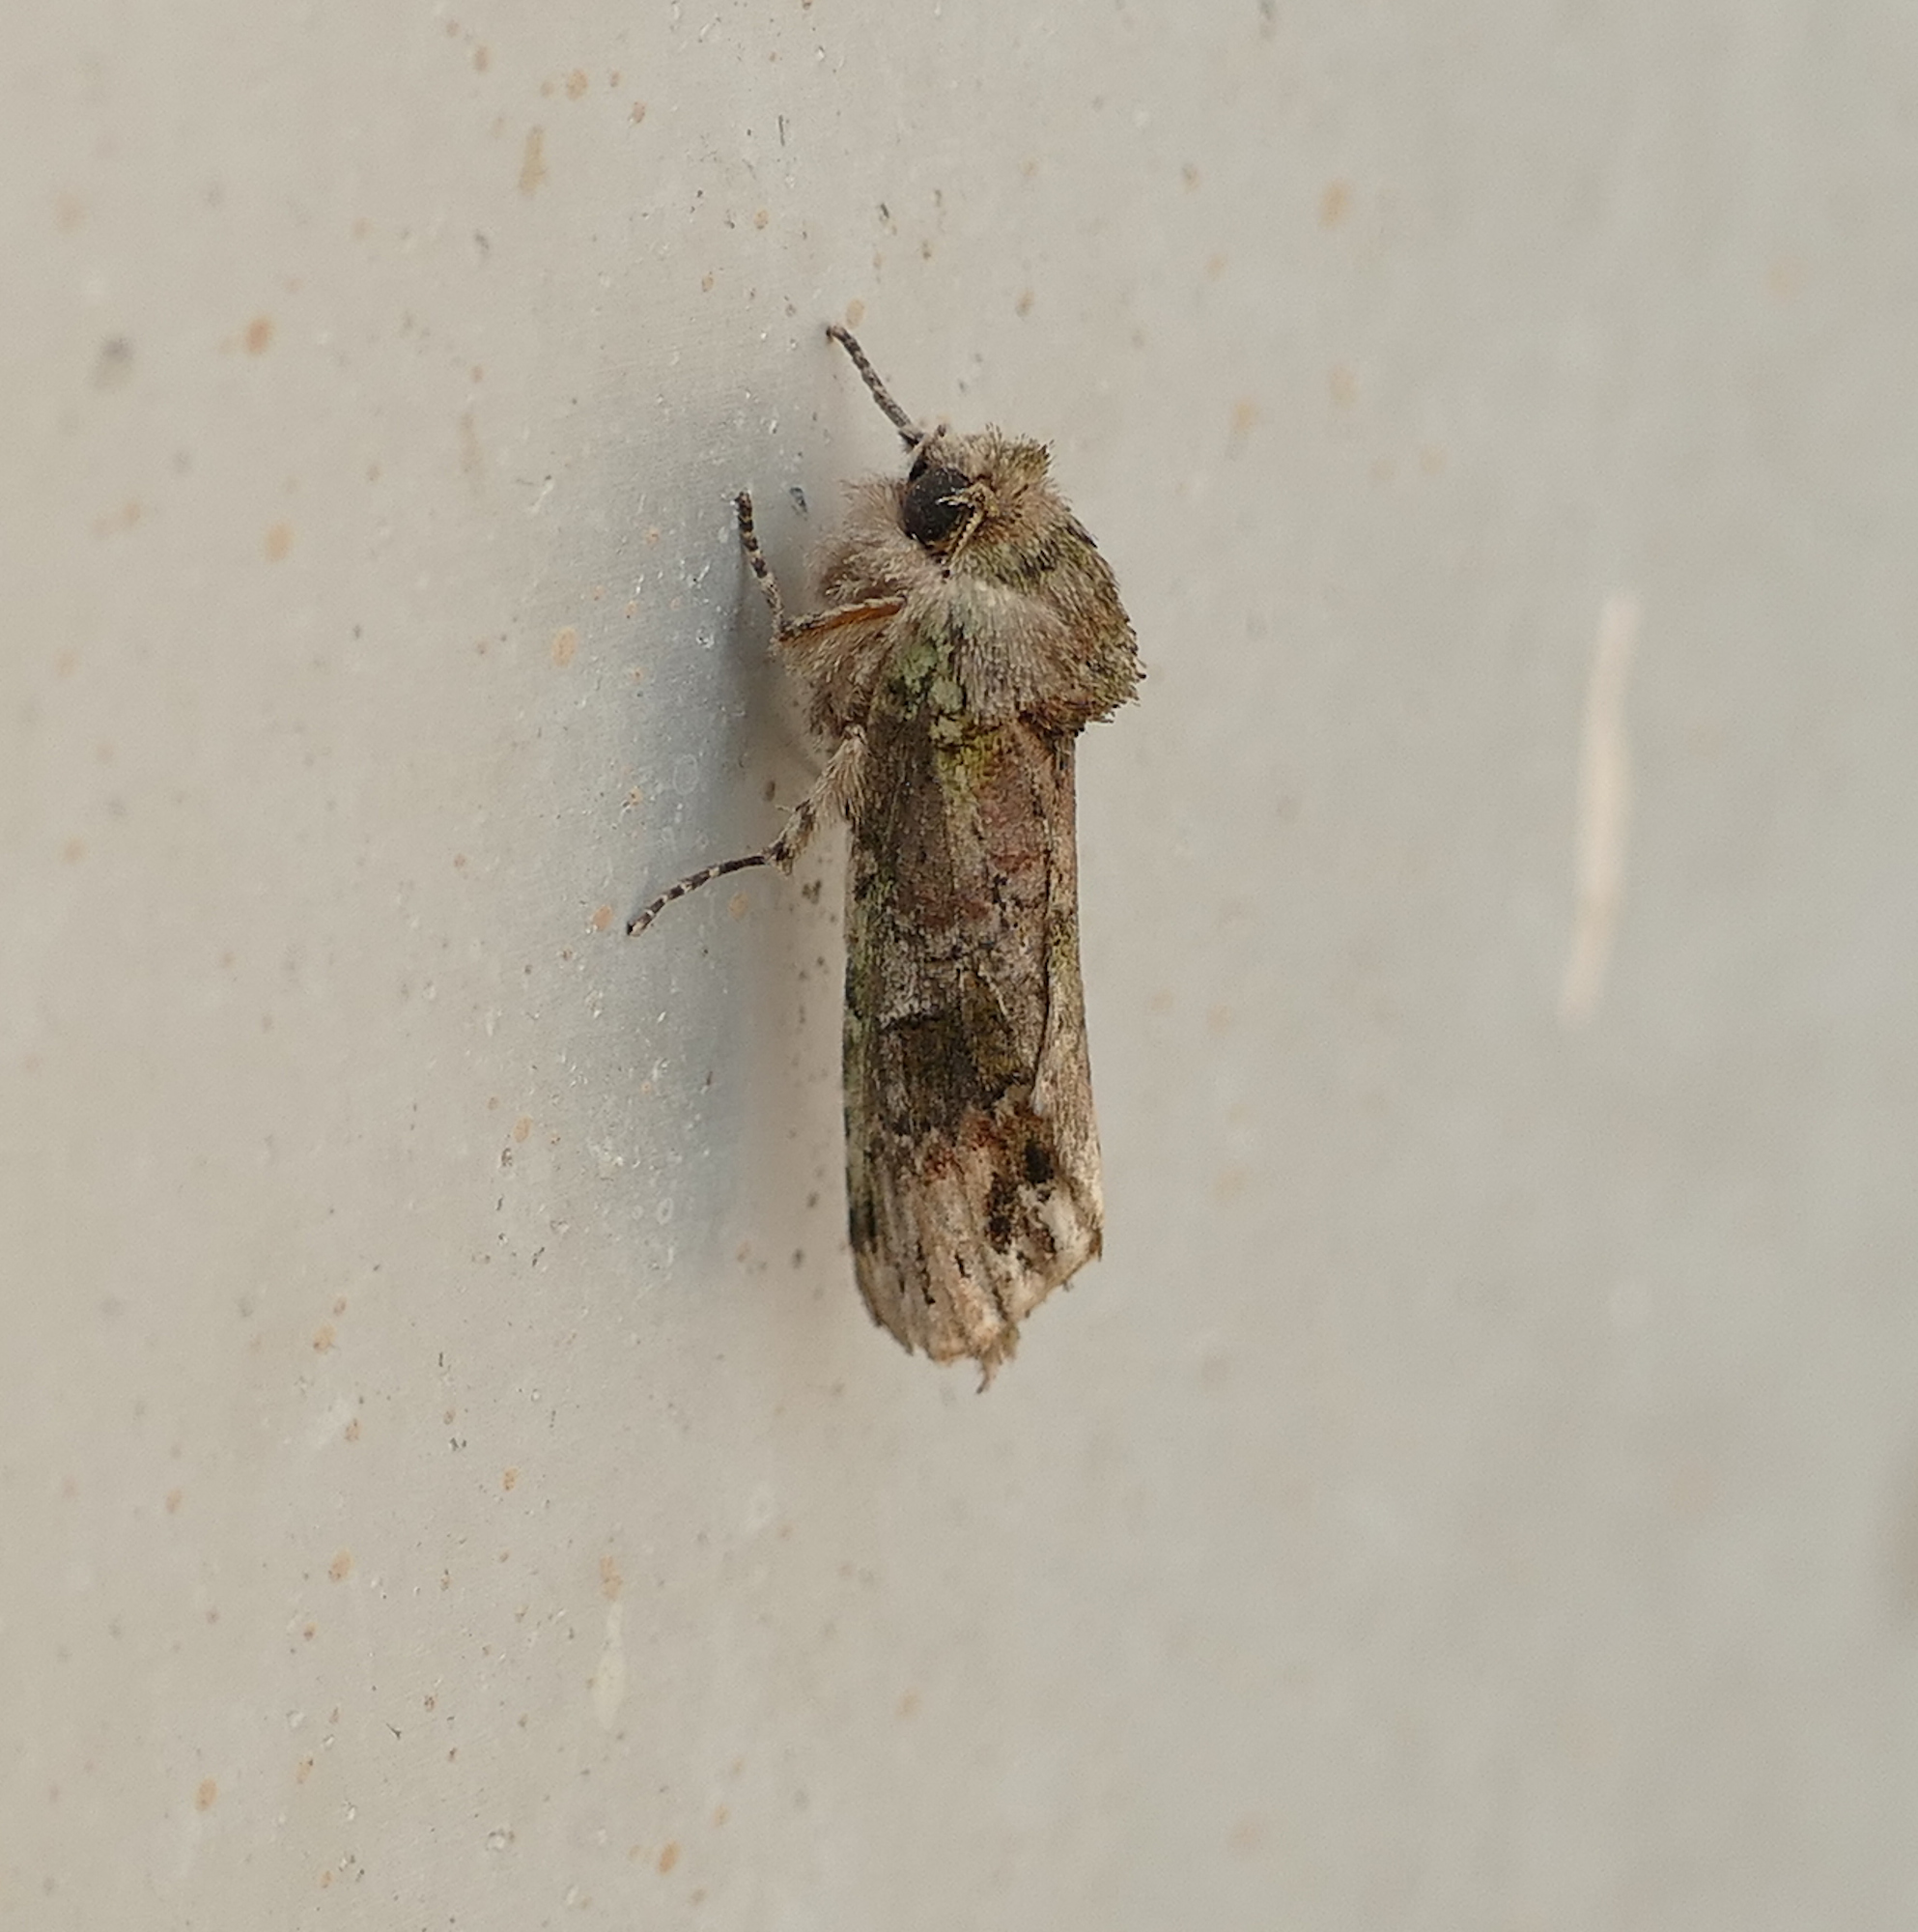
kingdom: Animalia
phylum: Arthropoda
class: Insecta
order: Lepidoptera
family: Notodontidae
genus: Schizura
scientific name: Schizura
